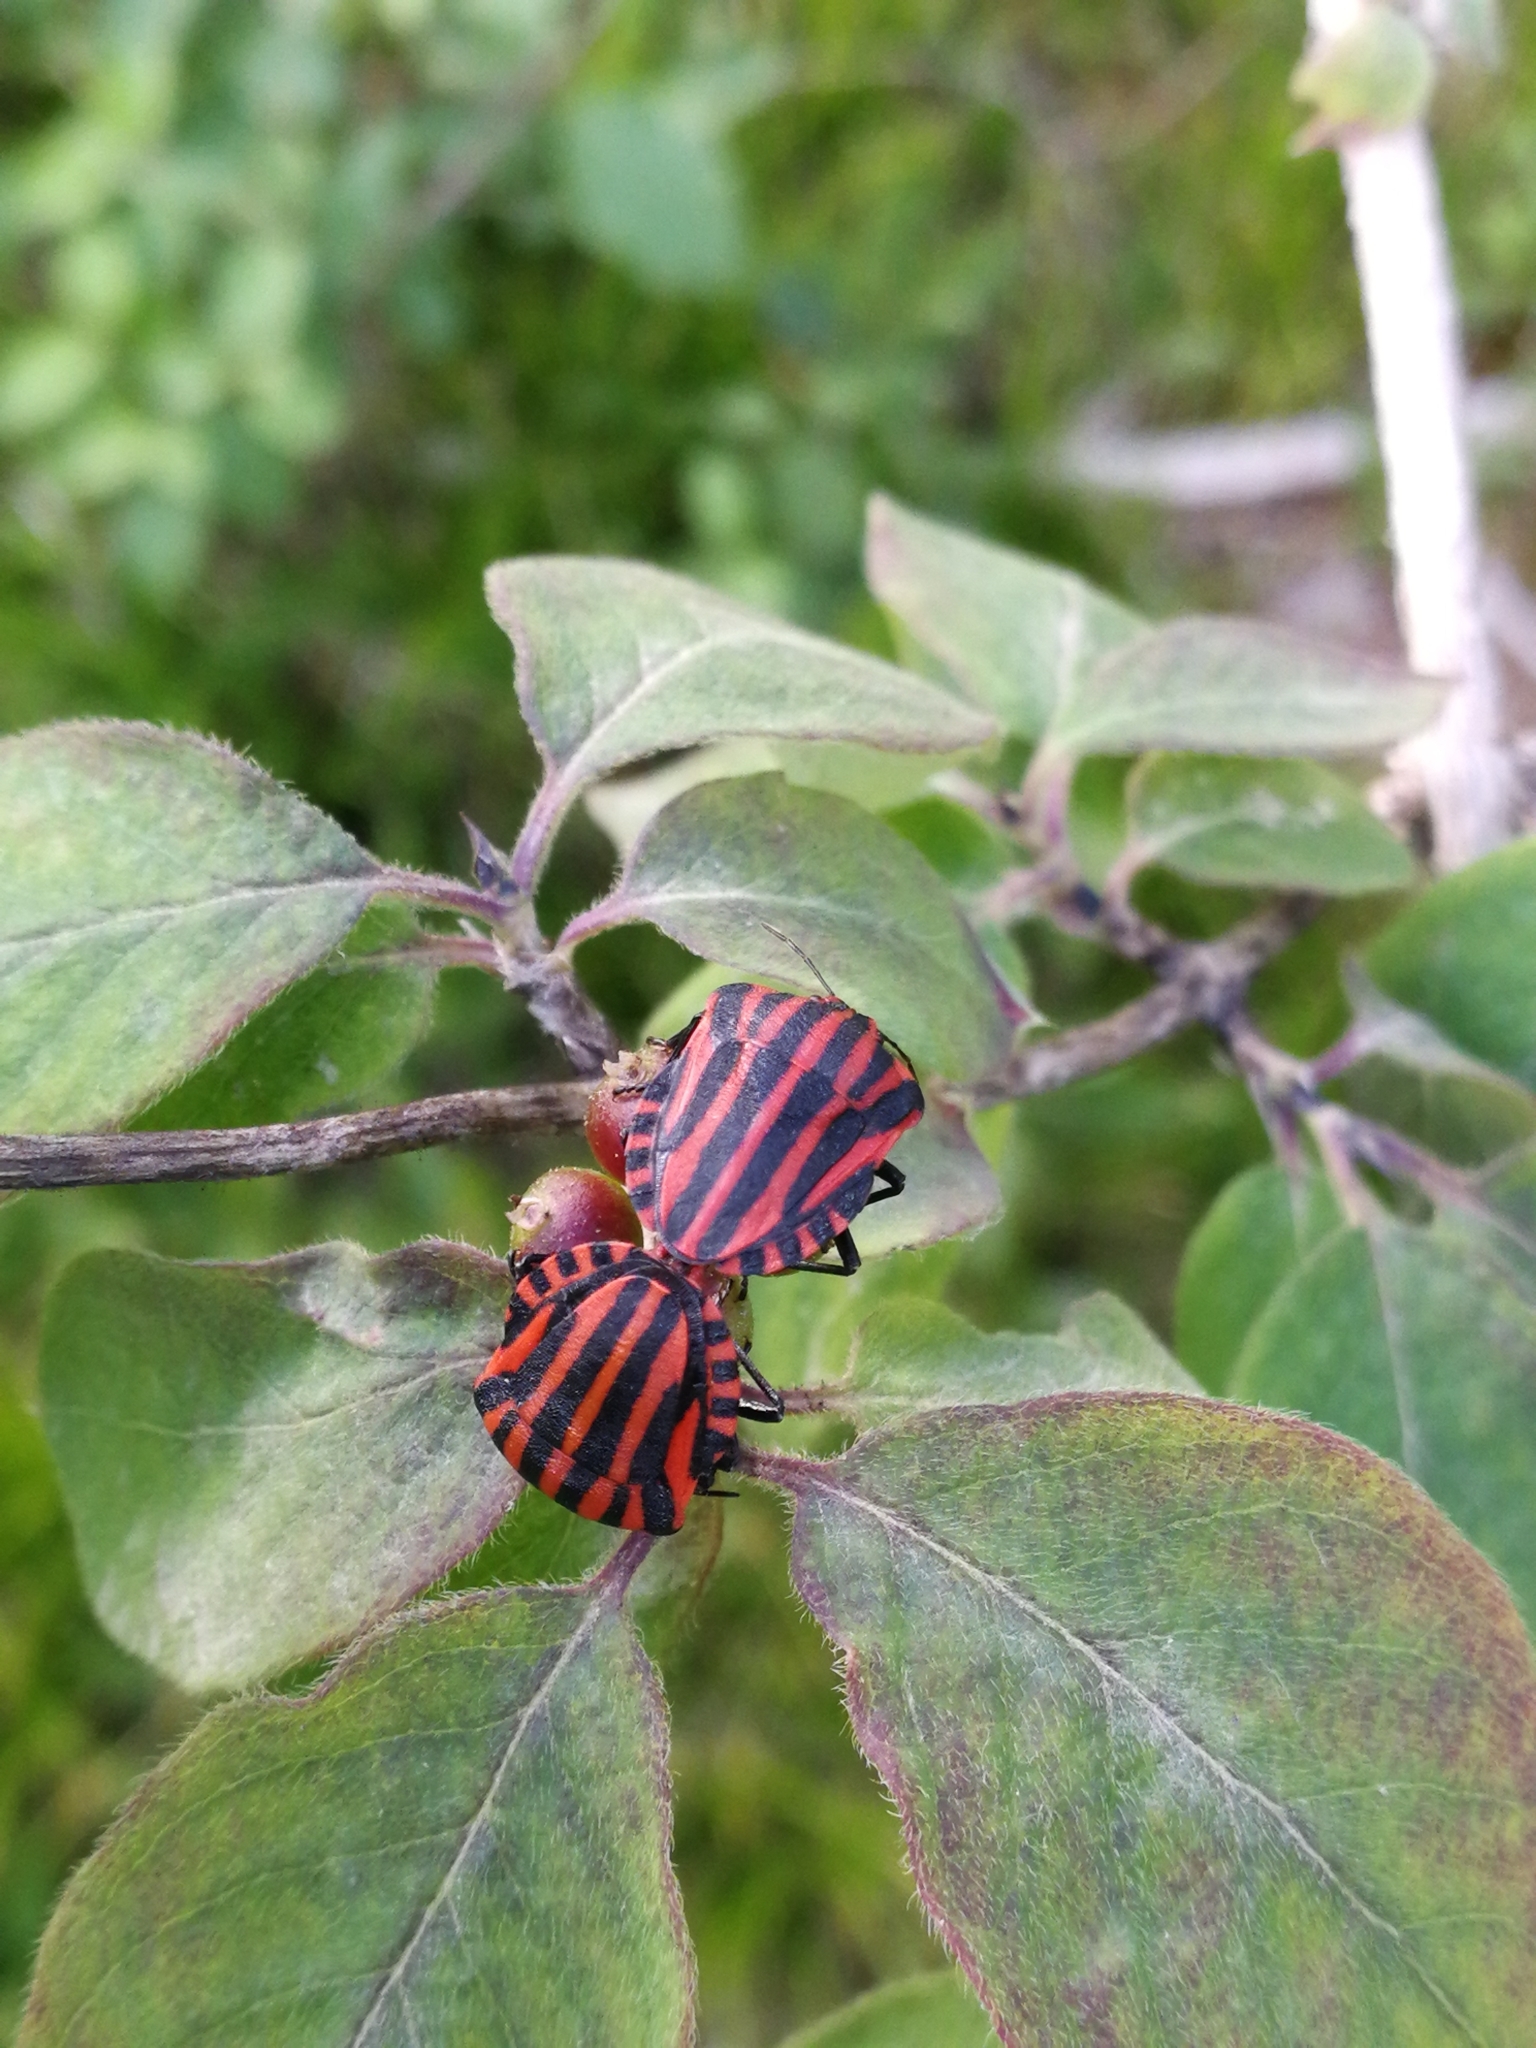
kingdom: Animalia
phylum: Arthropoda
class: Insecta
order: Hemiptera
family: Pentatomidae
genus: Graphosoma
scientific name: Graphosoma italicum
